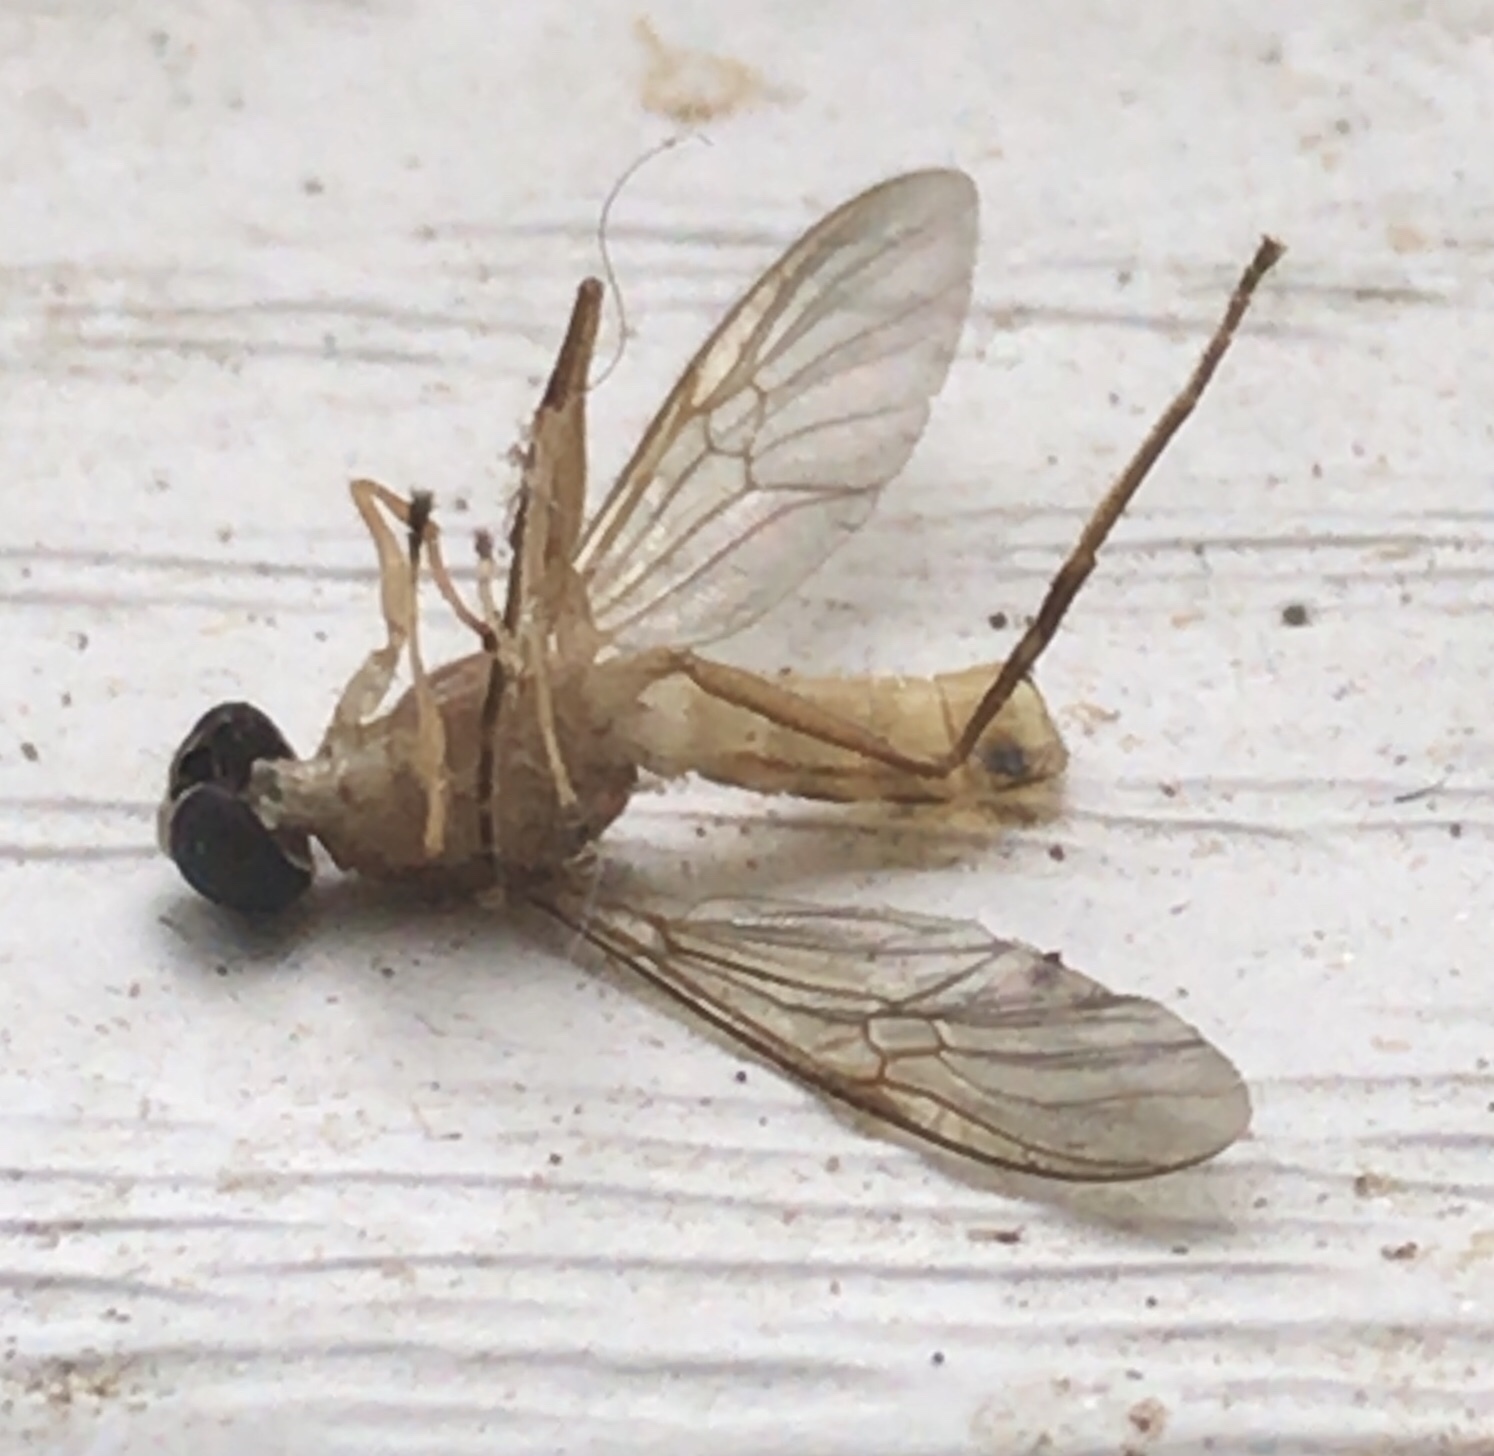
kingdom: Animalia
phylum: Arthropoda
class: Insecta
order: Diptera
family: Stratiomyidae
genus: Ptecticus
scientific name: Ptecticus trivittatus
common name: Compost fly
